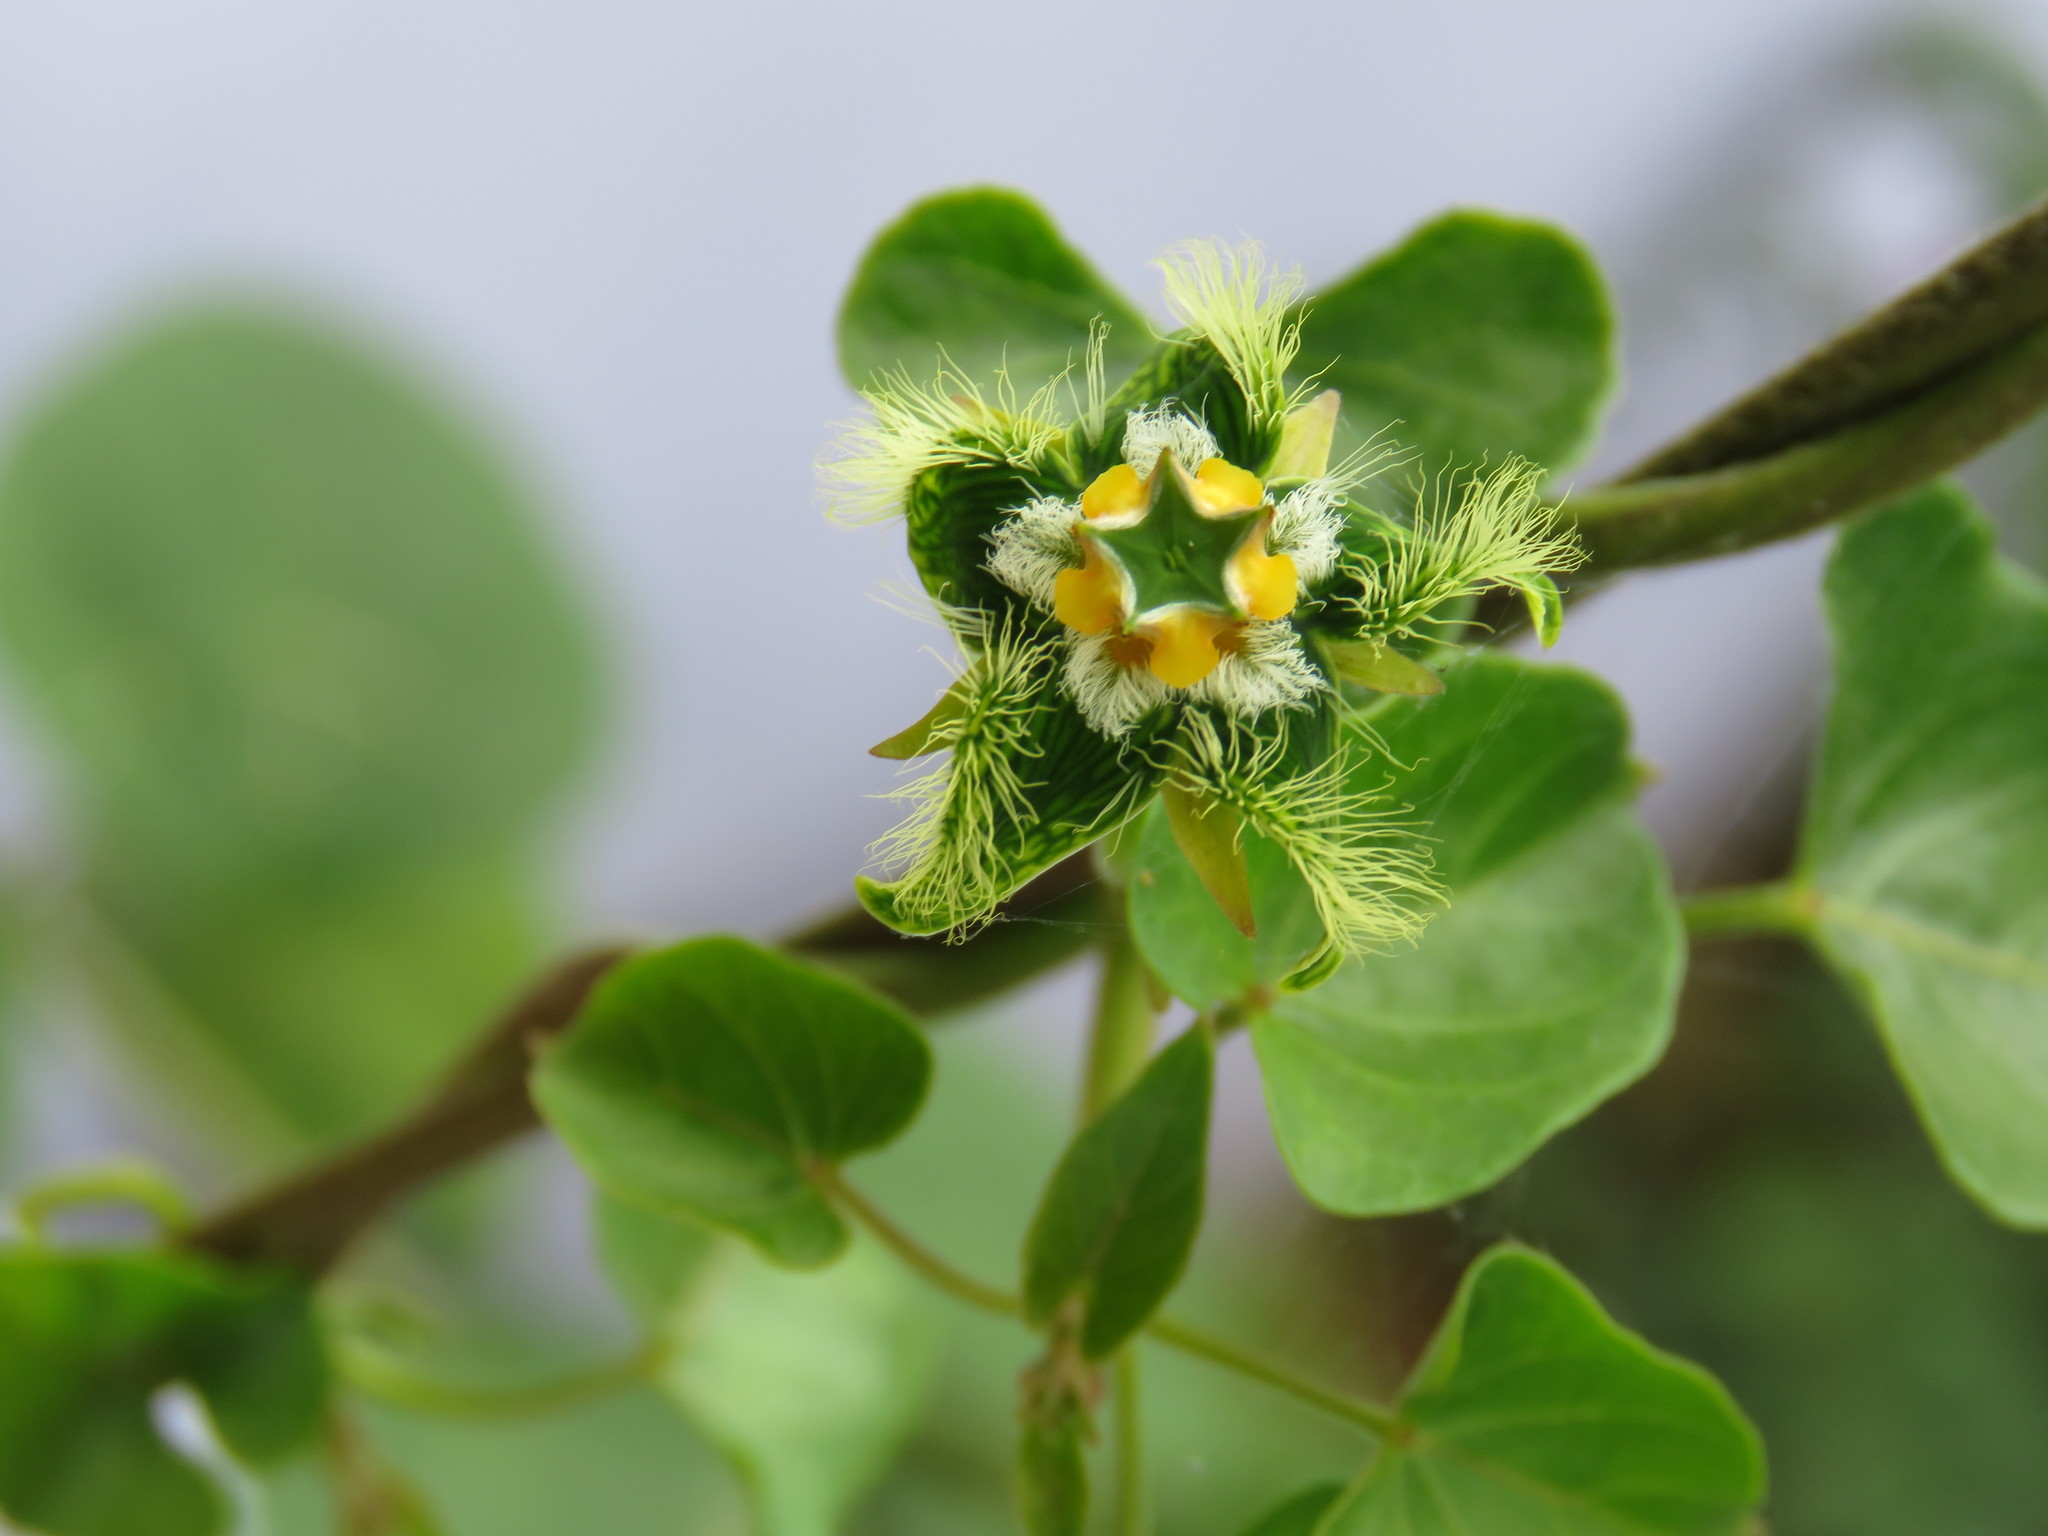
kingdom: Plantae
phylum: Tracheophyta
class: Magnoliopsida
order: Gentianales
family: Apocynaceae
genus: Gonolobus
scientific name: Gonolobus barbatus
